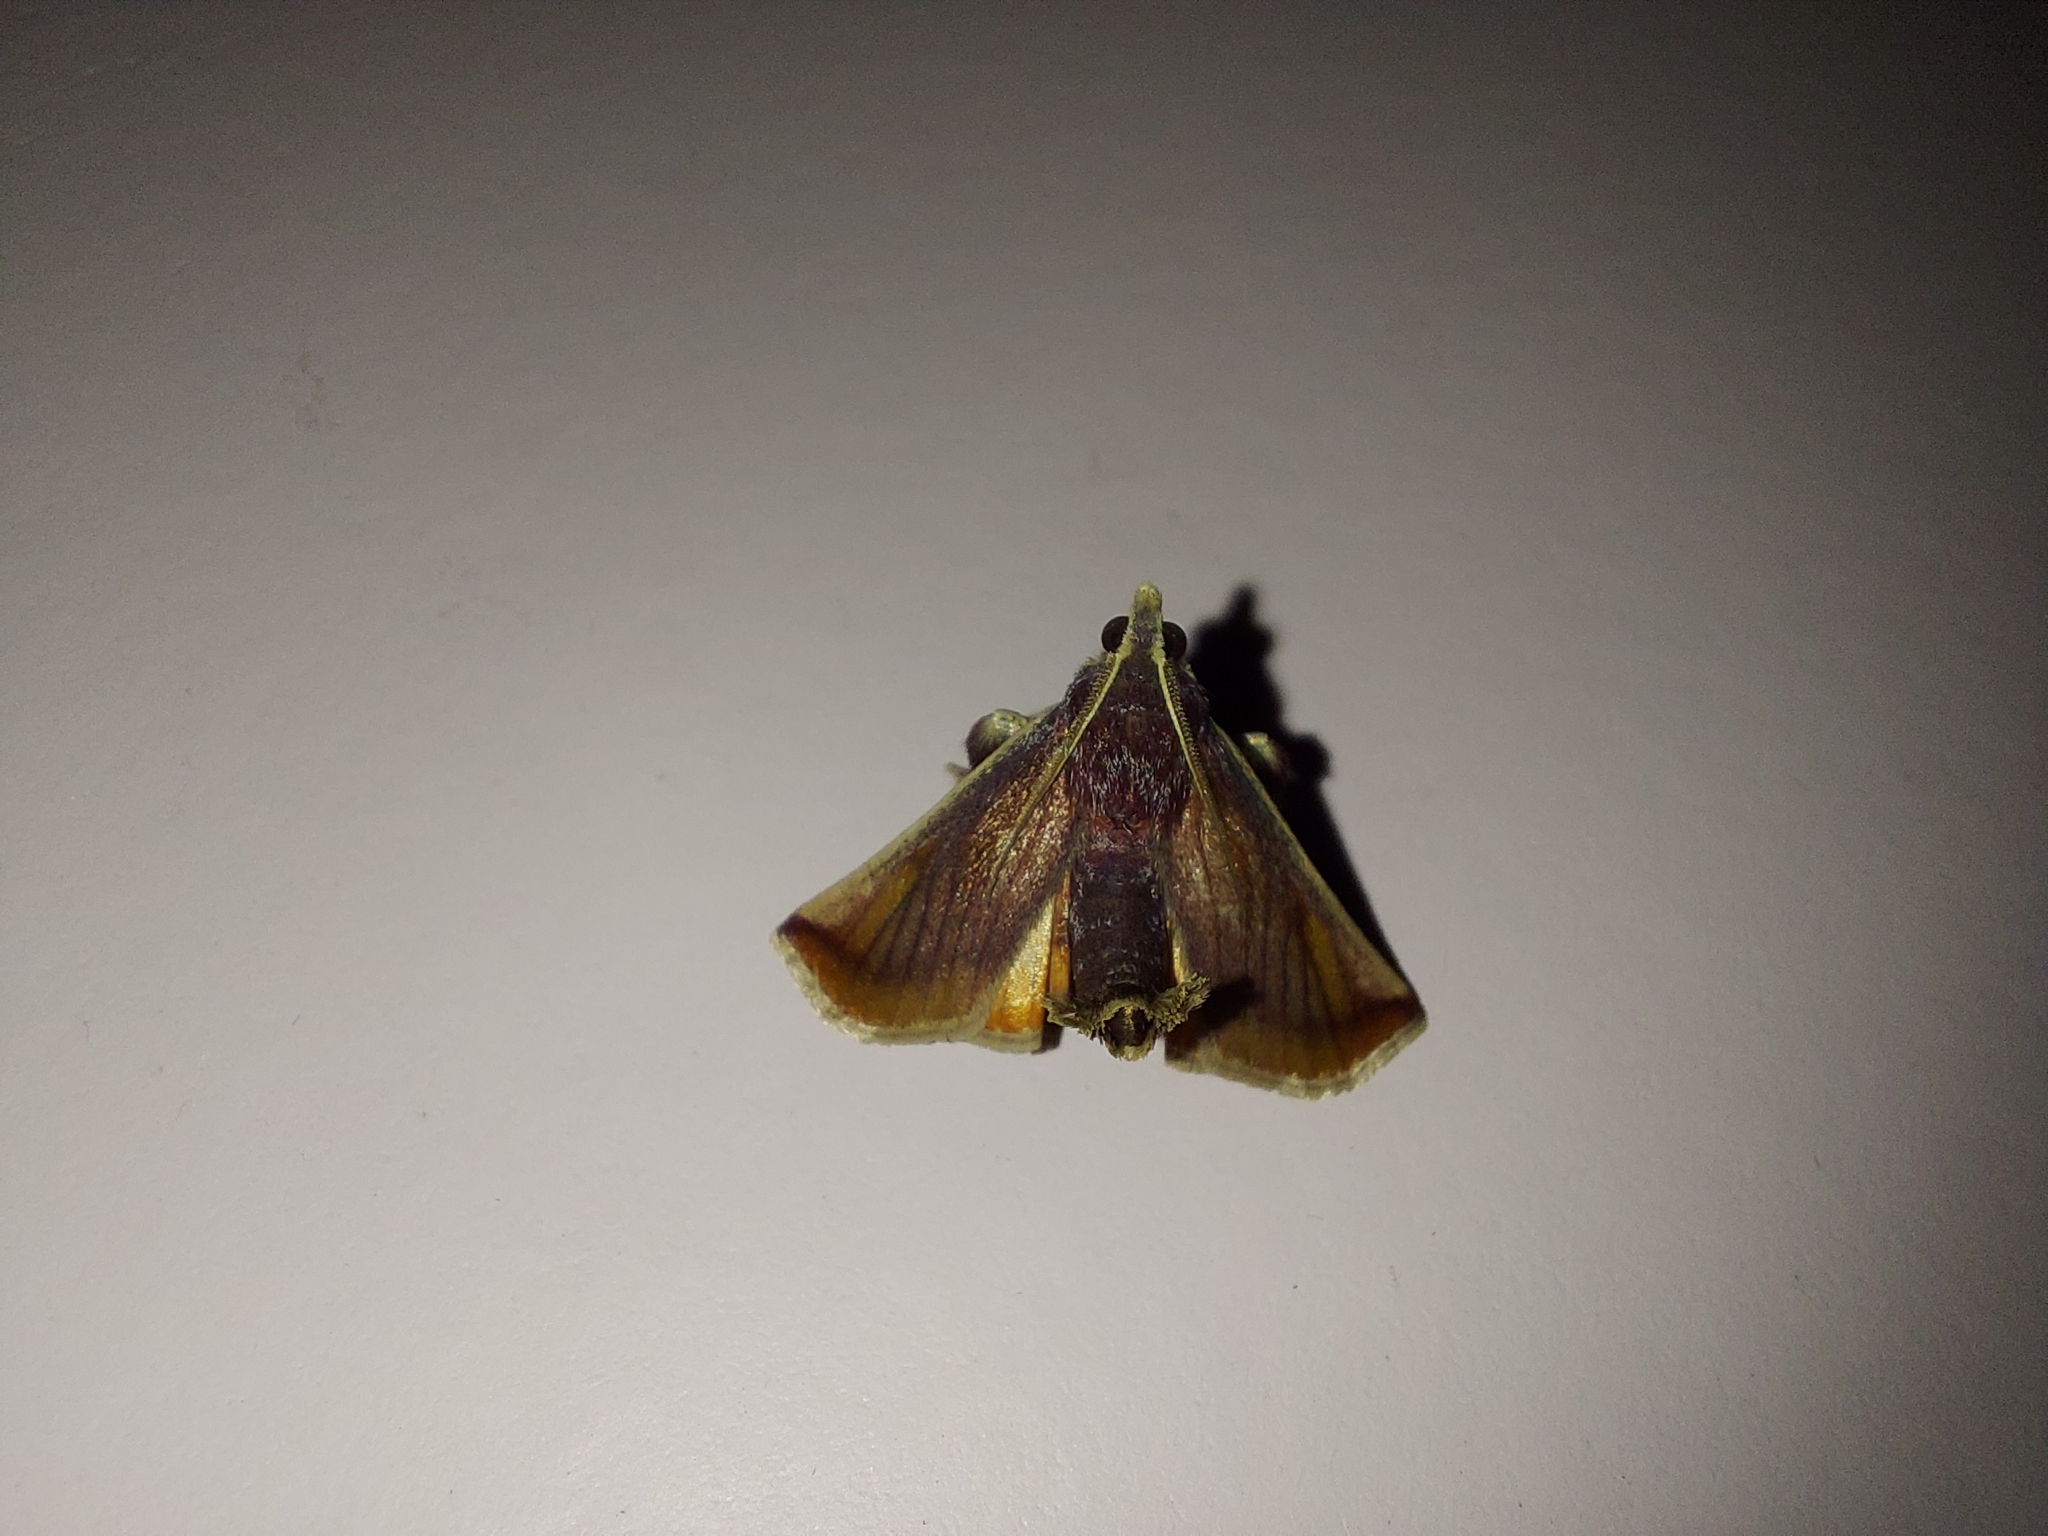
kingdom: Animalia
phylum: Arthropoda
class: Insecta
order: Lepidoptera
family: Pyralidae
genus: Toccolosida
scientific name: Toccolosida
